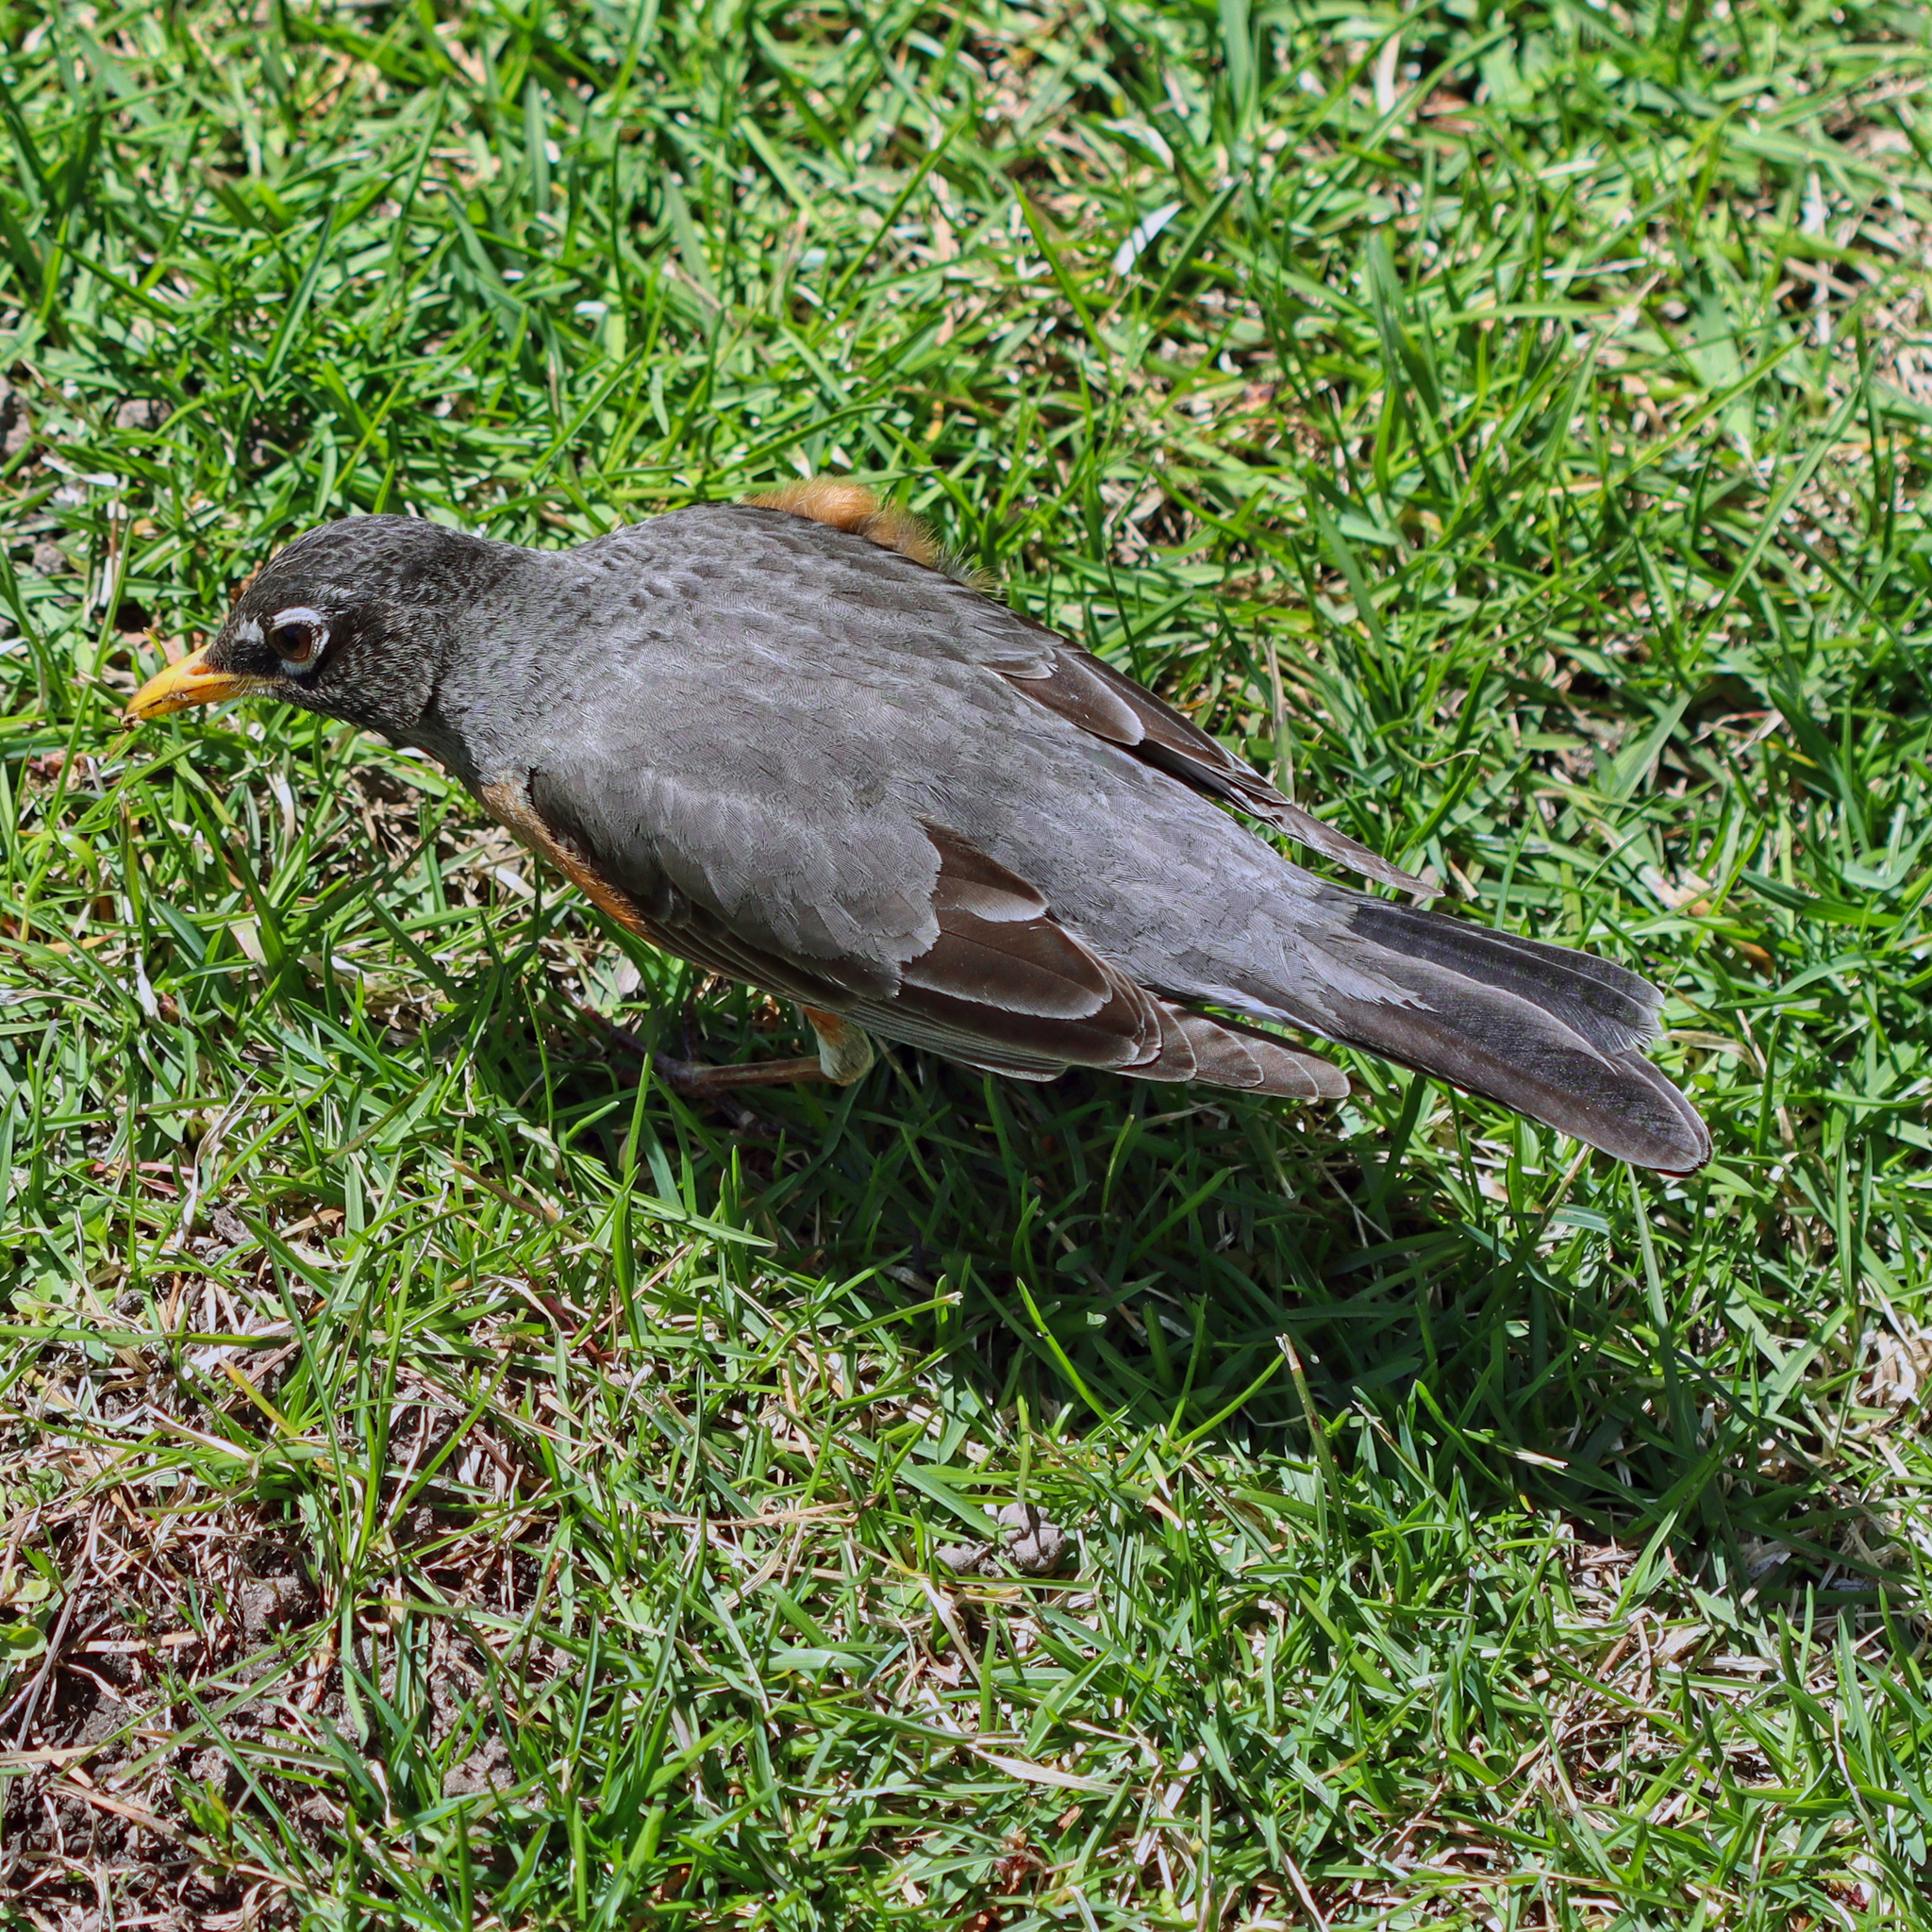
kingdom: Animalia
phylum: Chordata
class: Aves
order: Passeriformes
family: Turdidae
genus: Turdus
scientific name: Turdus migratorius
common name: American robin
